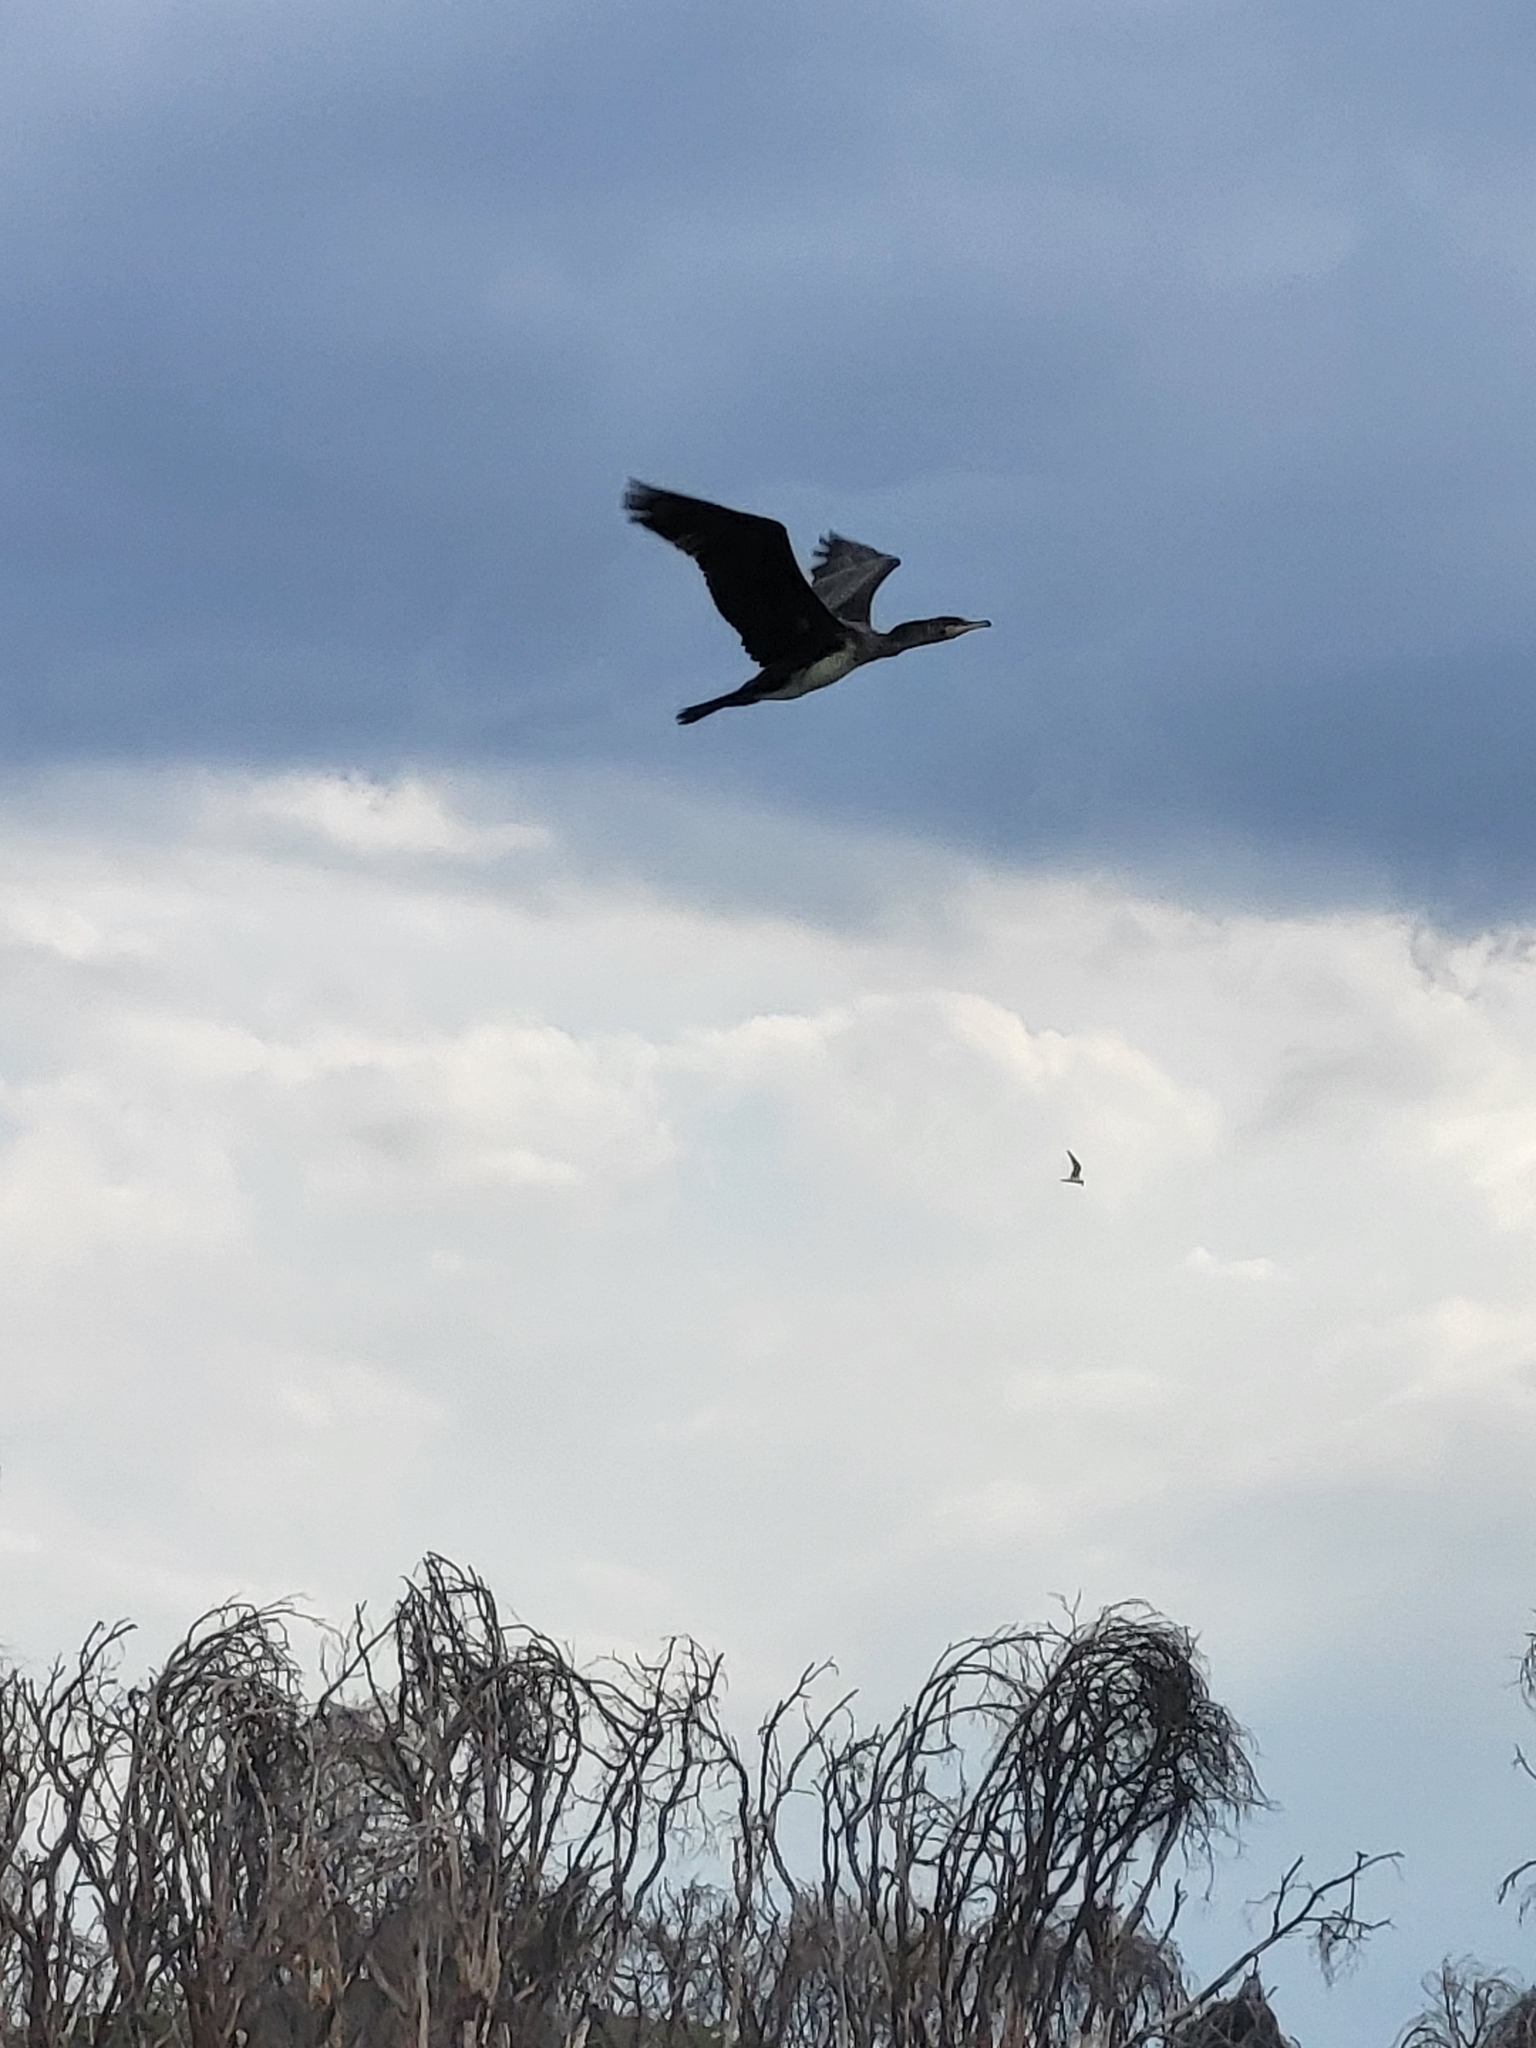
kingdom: Animalia
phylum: Chordata
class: Aves
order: Suliformes
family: Phalacrocoracidae
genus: Microcarbo
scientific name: Microcarbo africanus
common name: Long-tailed cormorant
